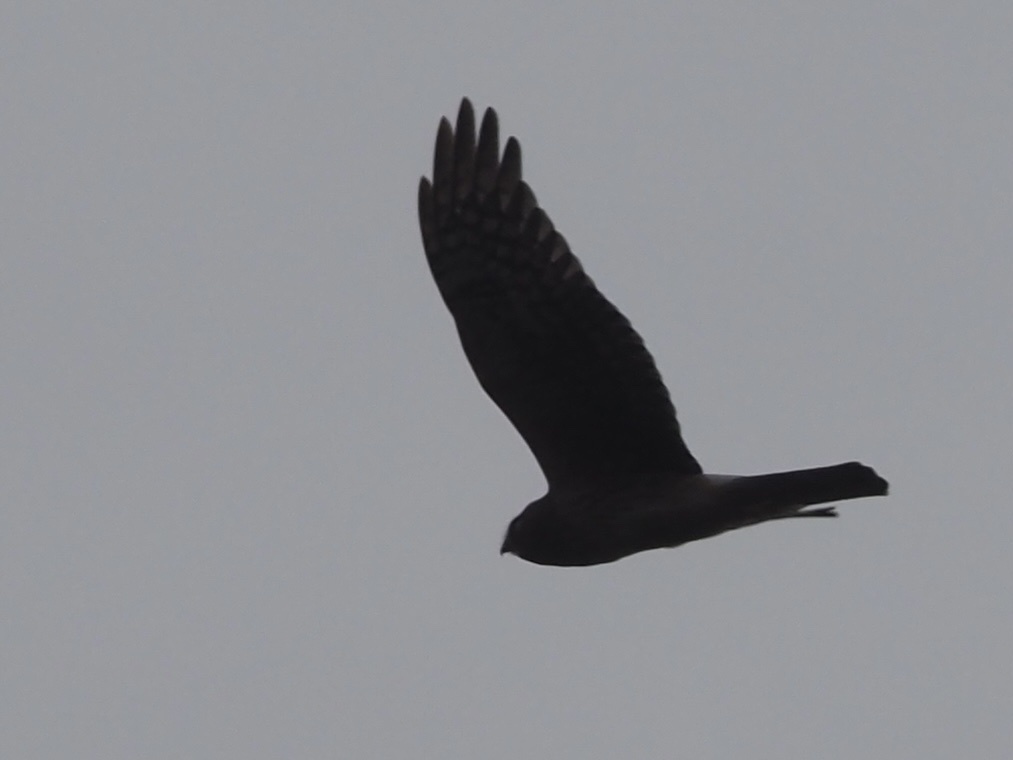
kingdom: Animalia
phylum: Chordata
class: Aves
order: Accipitriformes
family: Accipitridae
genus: Circus
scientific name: Circus cyaneus
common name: Hen harrier
